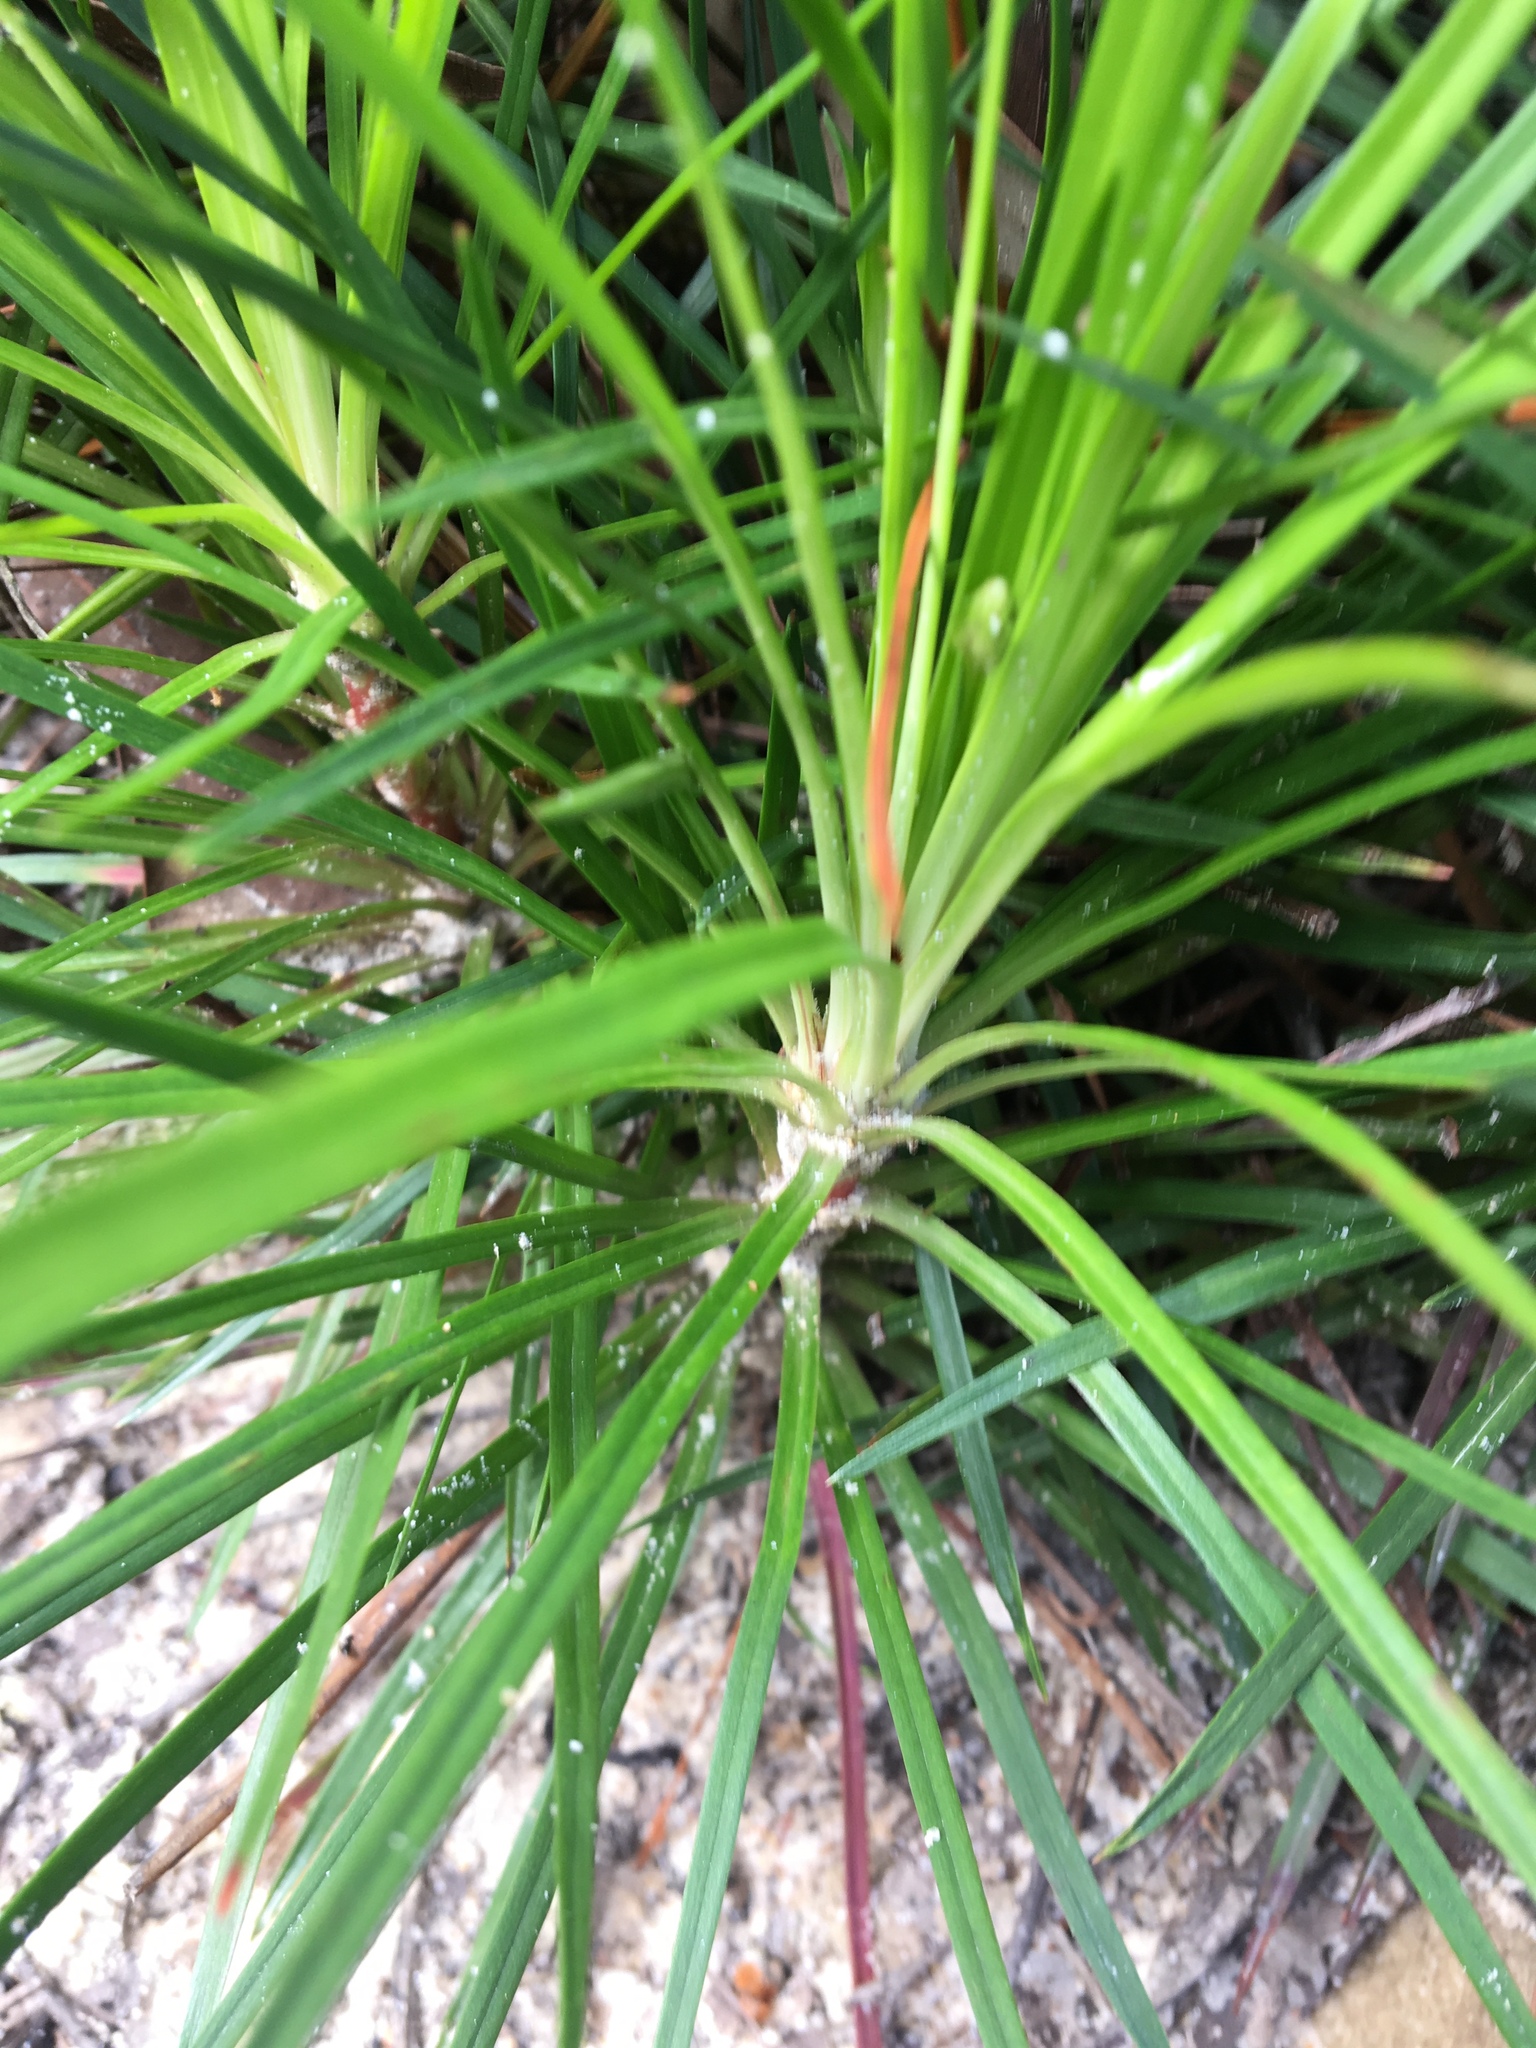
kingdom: Plantae
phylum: Tracheophyta
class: Magnoliopsida
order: Asterales
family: Stylidiaceae
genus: Stylidium
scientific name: Stylidium productum
